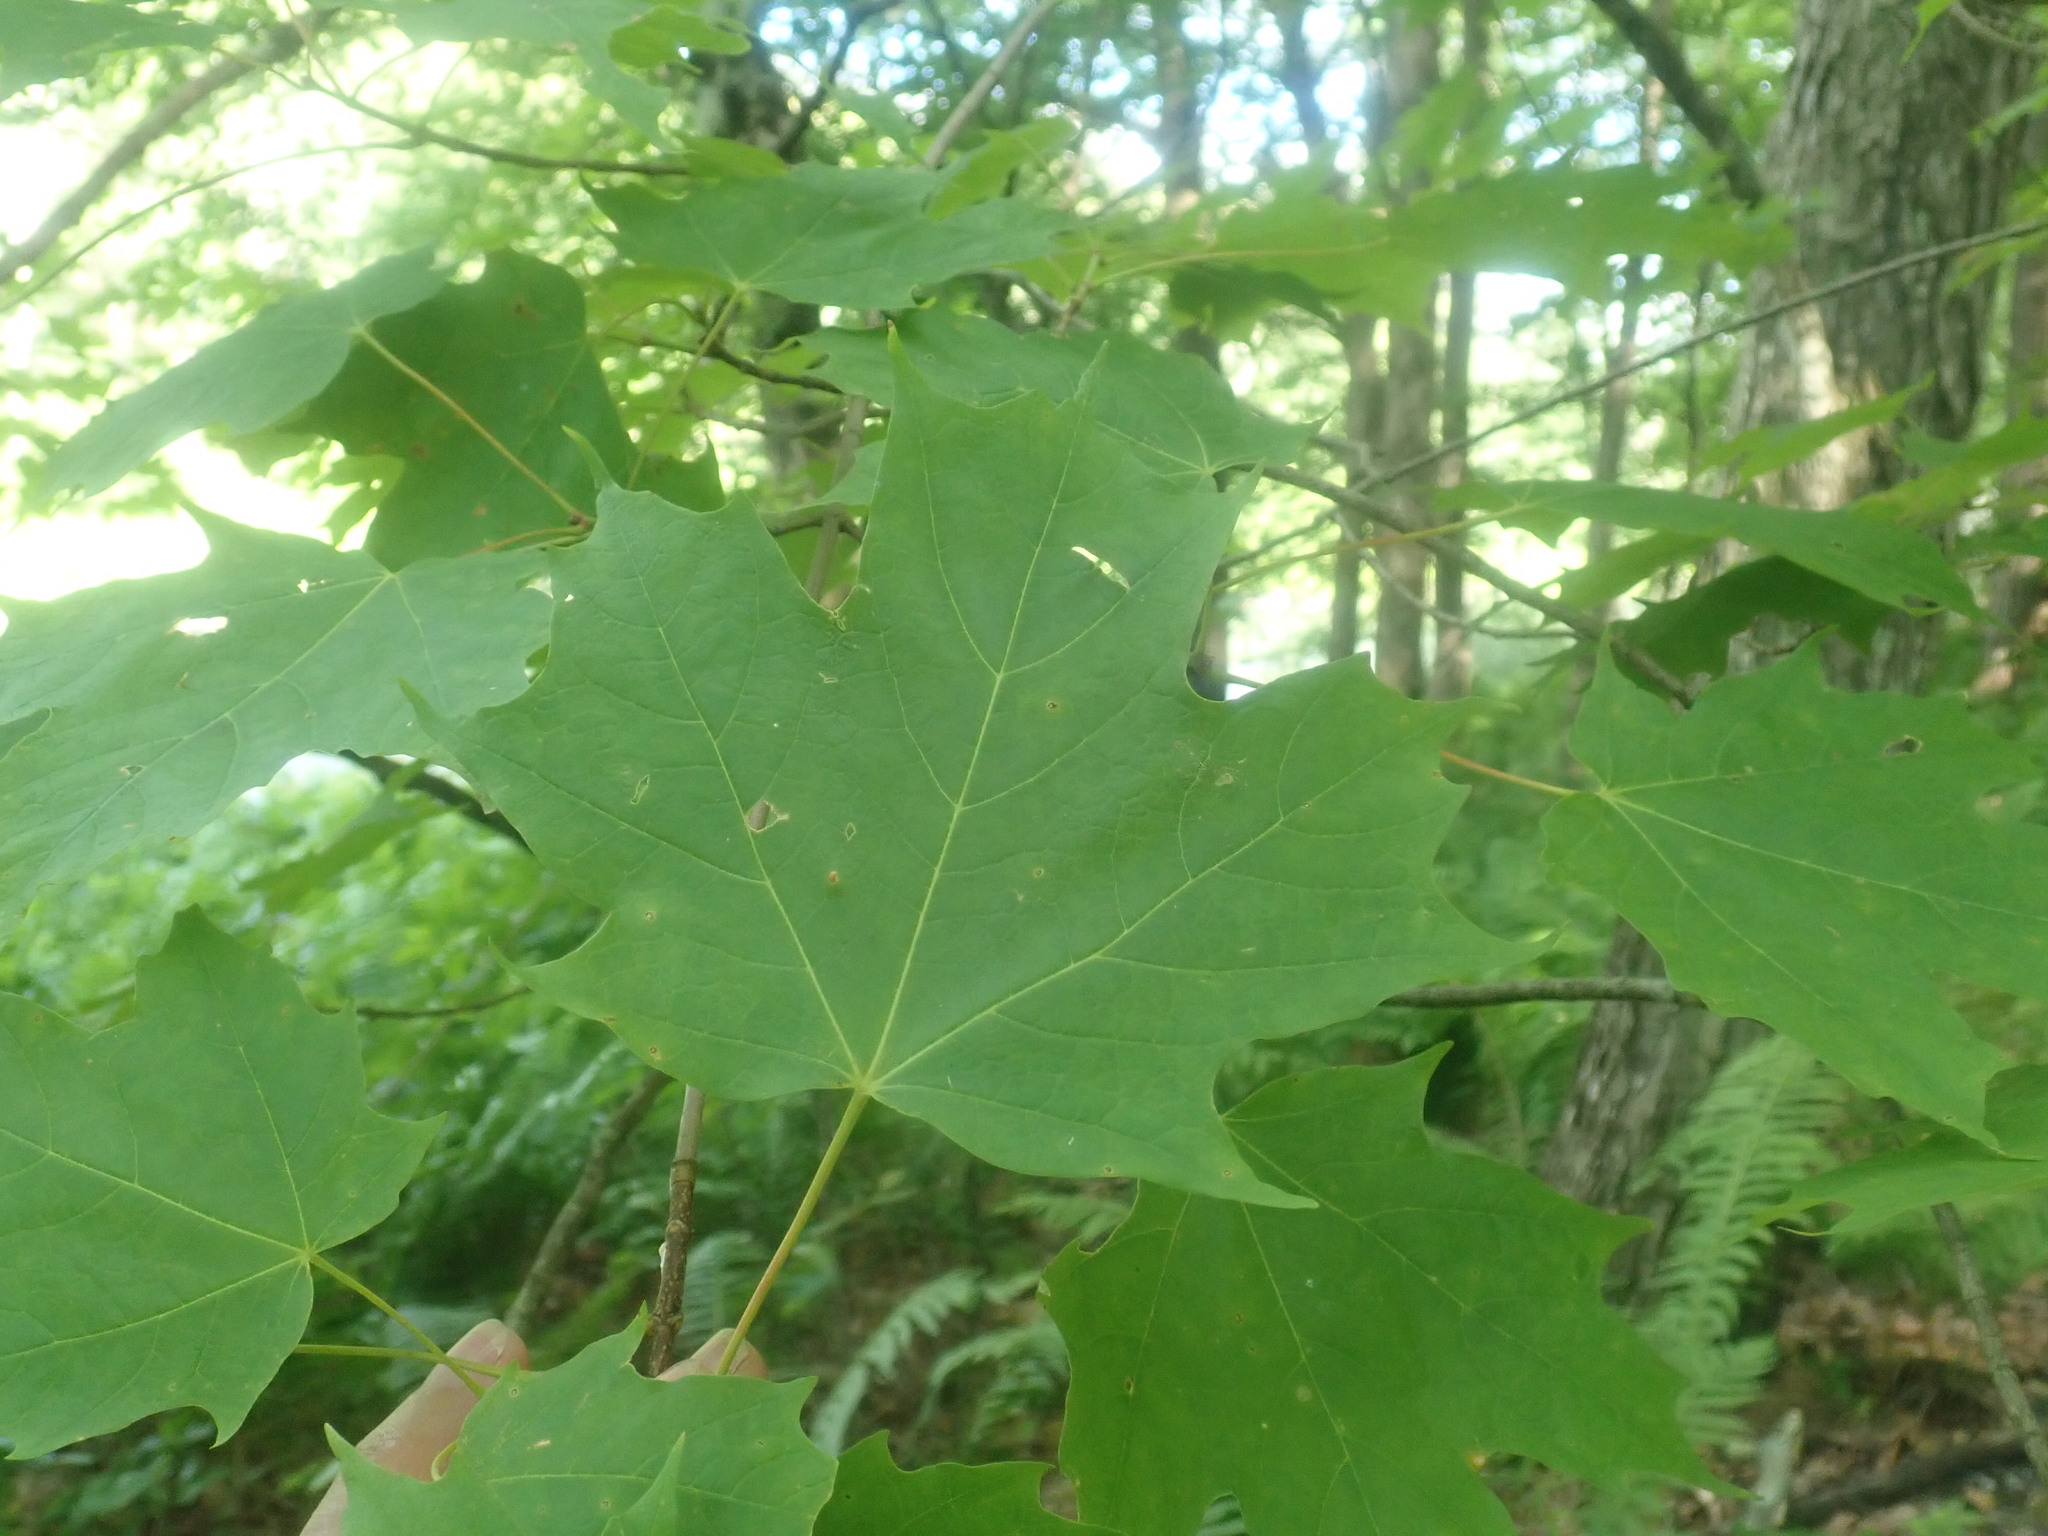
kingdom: Plantae
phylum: Tracheophyta
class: Magnoliopsida
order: Sapindales
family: Sapindaceae
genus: Acer
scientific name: Acer saccharum
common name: Sugar maple
